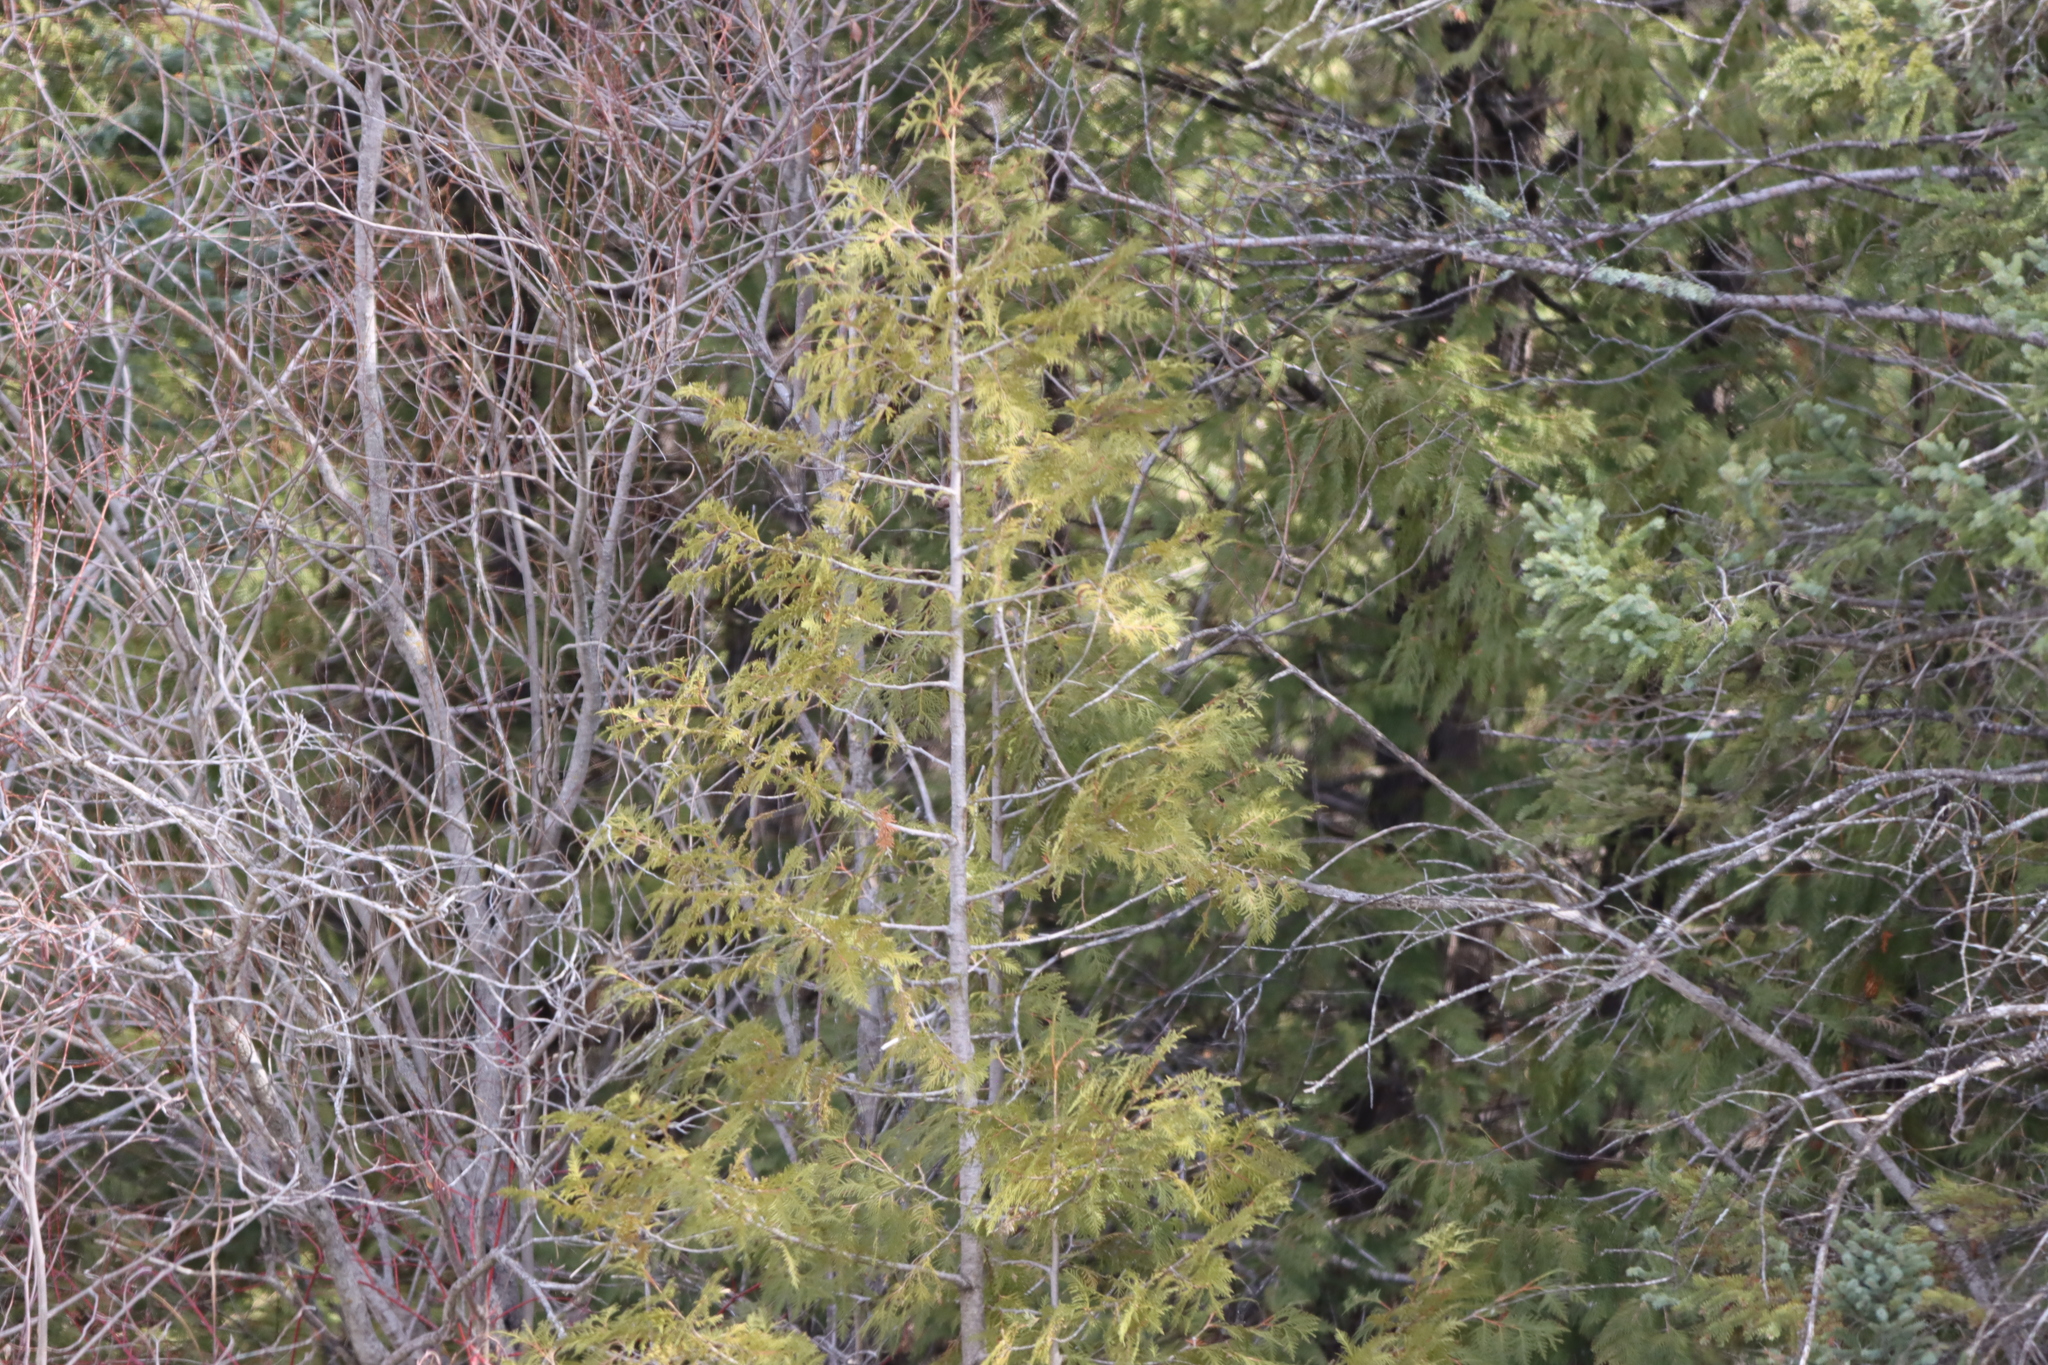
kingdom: Plantae
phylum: Tracheophyta
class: Pinopsida
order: Pinales
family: Cupressaceae
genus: Thuja
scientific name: Thuja occidentalis
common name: Northern white-cedar
